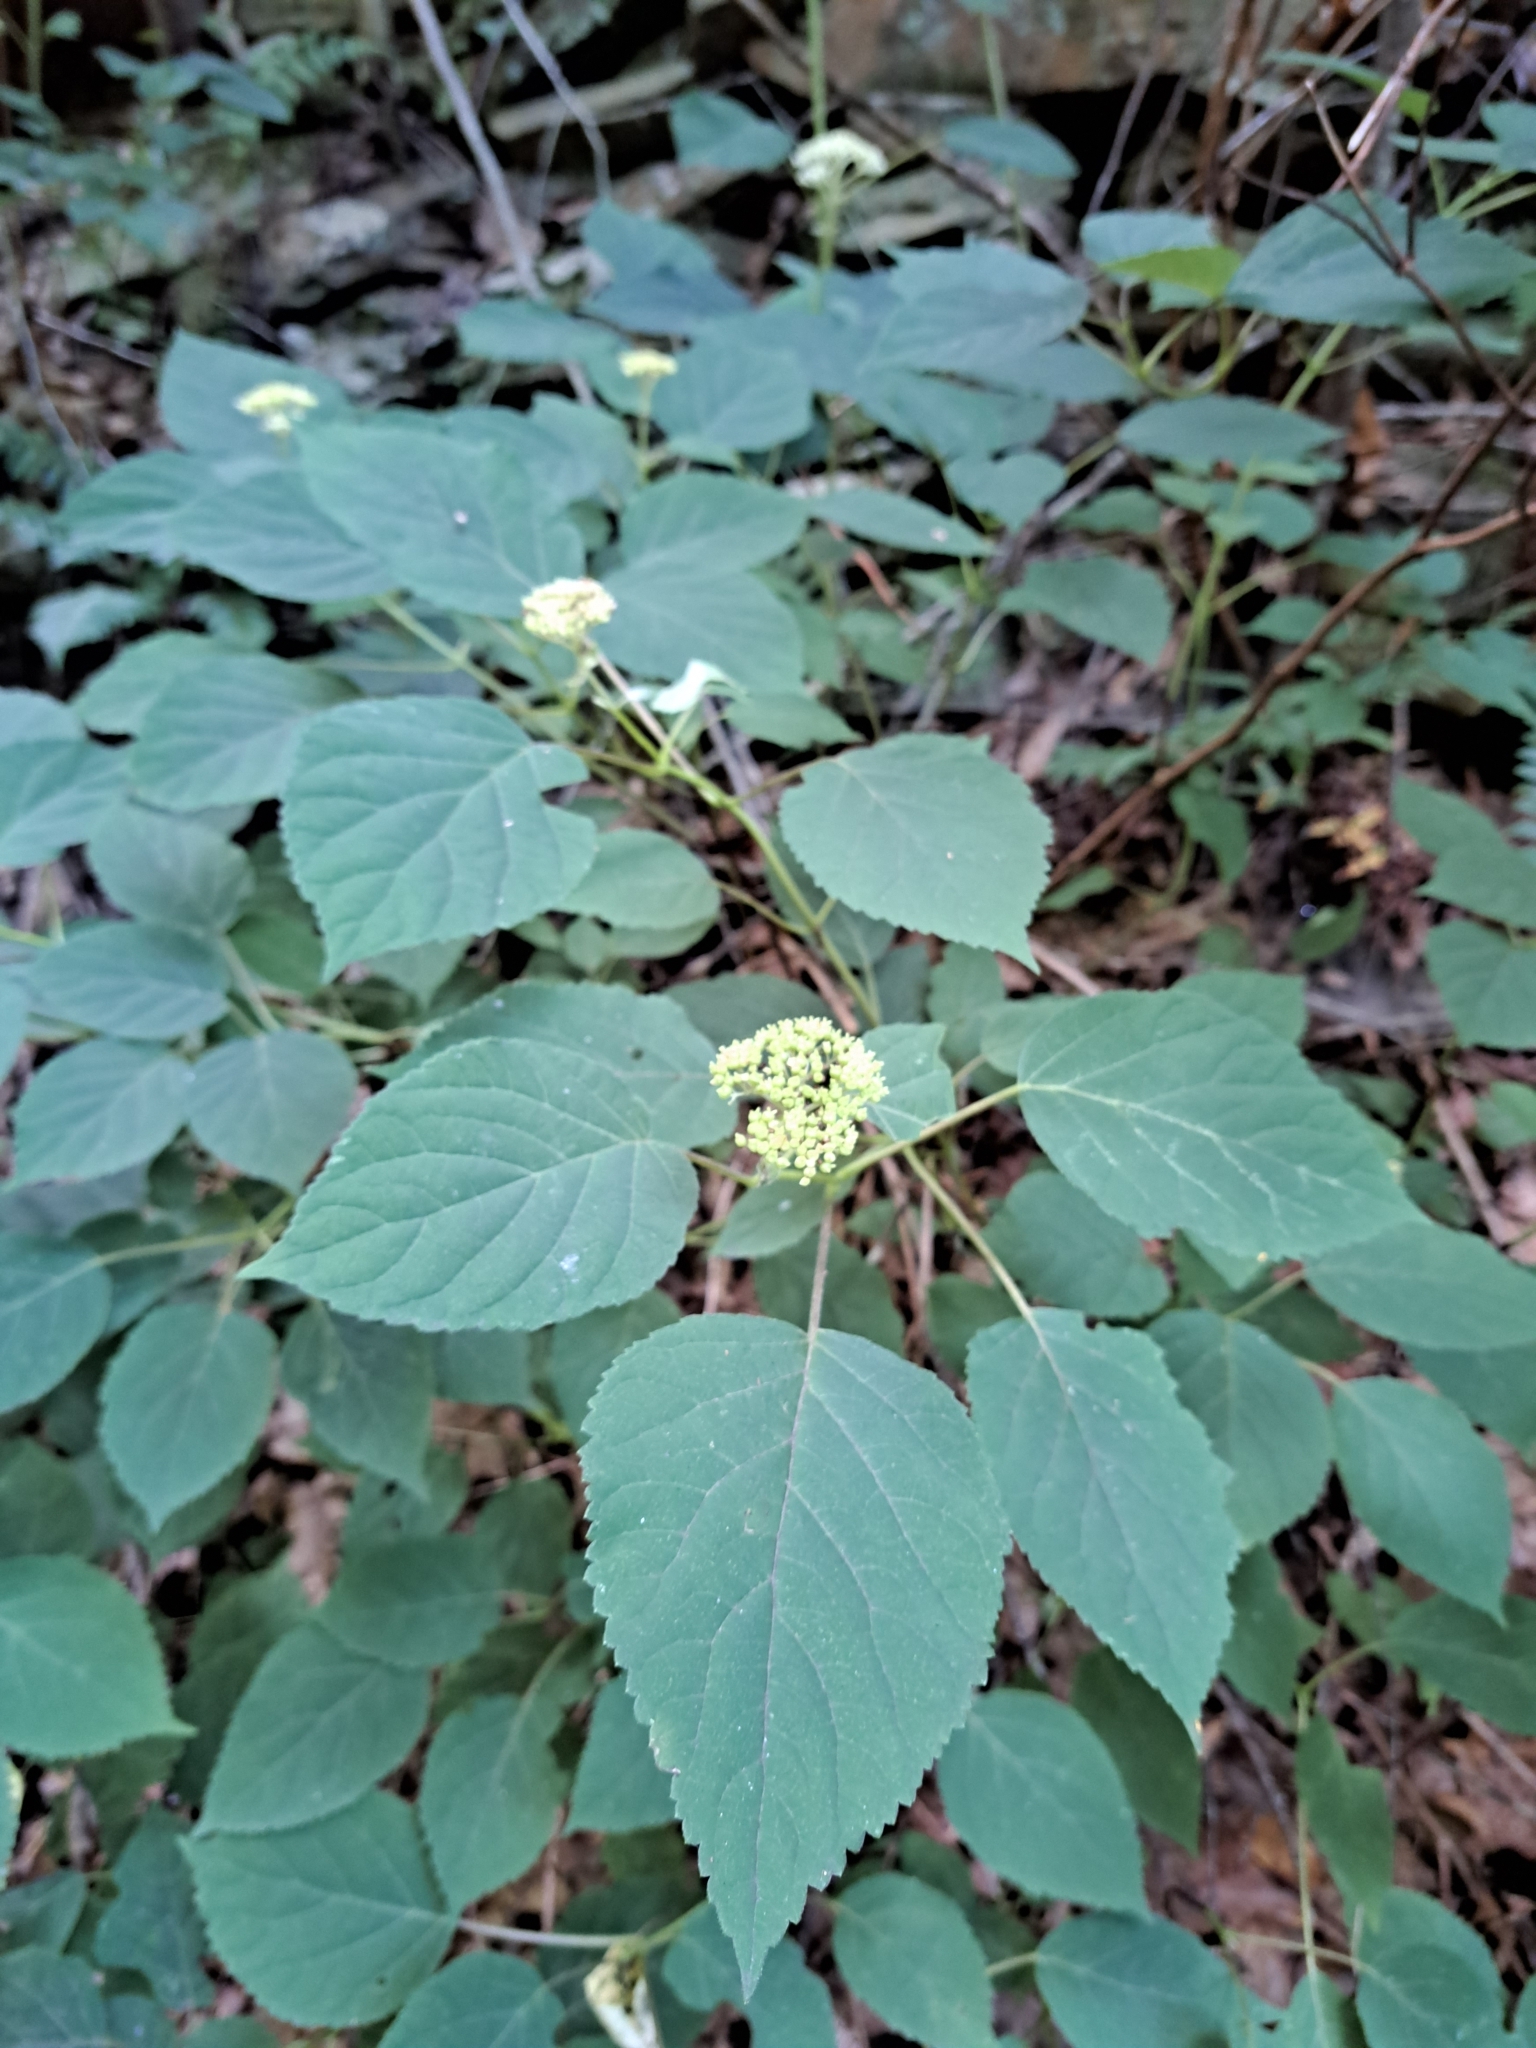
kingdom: Plantae
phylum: Tracheophyta
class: Magnoliopsida
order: Cornales
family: Hydrangeaceae
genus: Hydrangea
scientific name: Hydrangea arborescens
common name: Sevenbark
